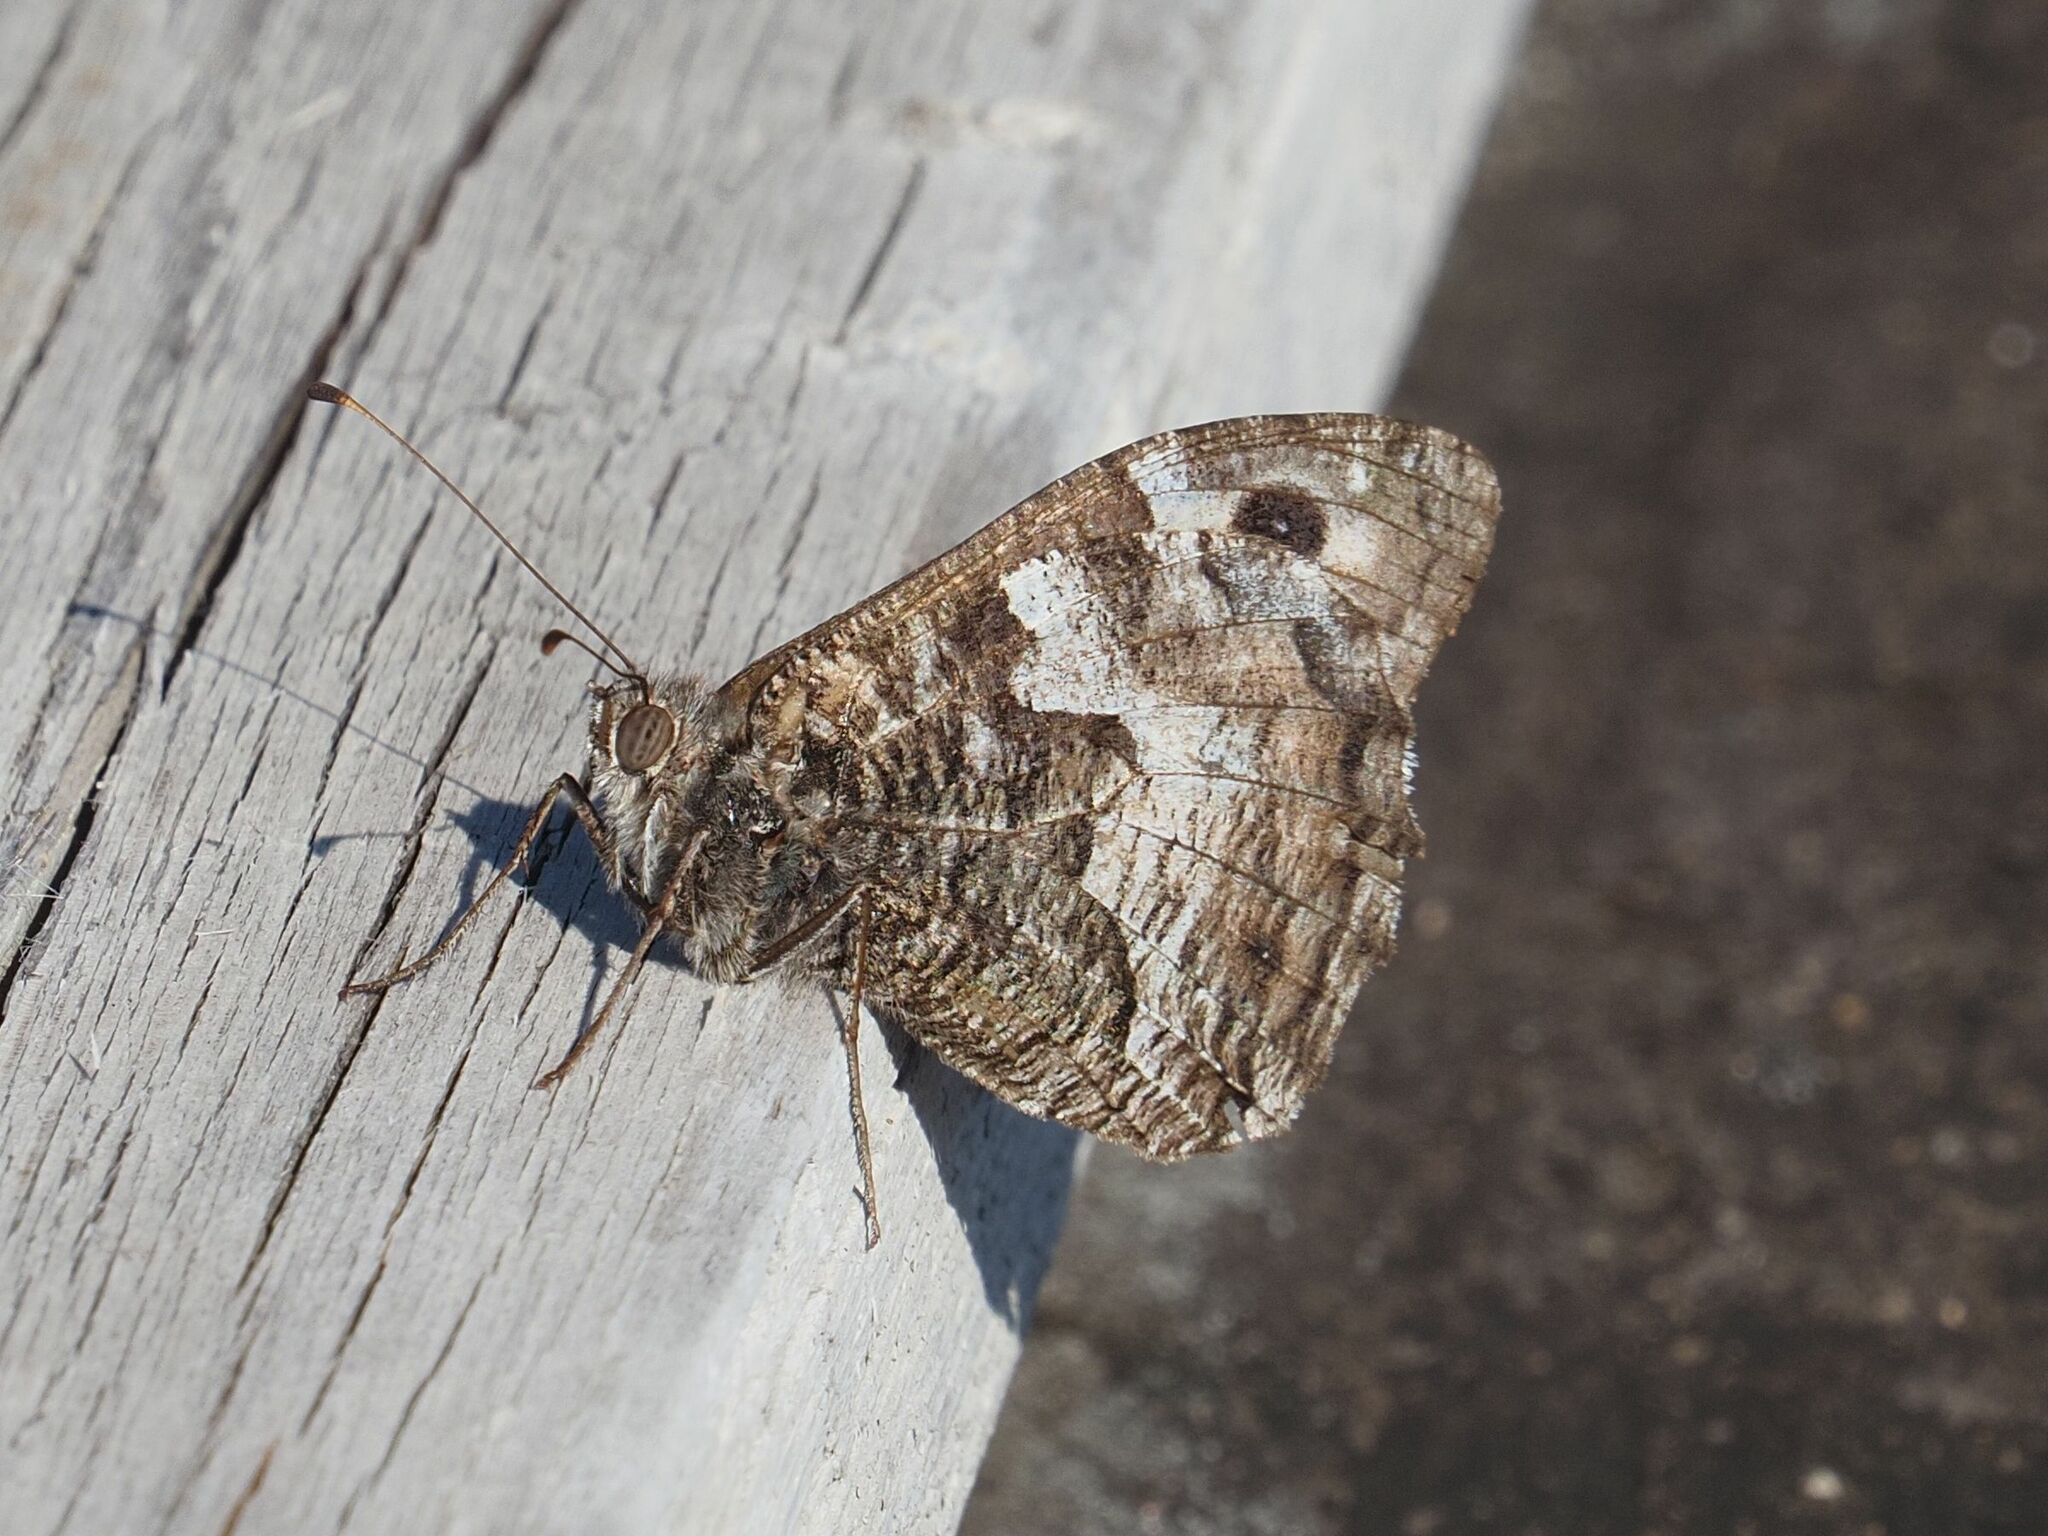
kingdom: Animalia
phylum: Arthropoda
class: Insecta
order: Lepidoptera
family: Nymphalidae
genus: Hipparchia
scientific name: Hipparchia semele
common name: Grayling
